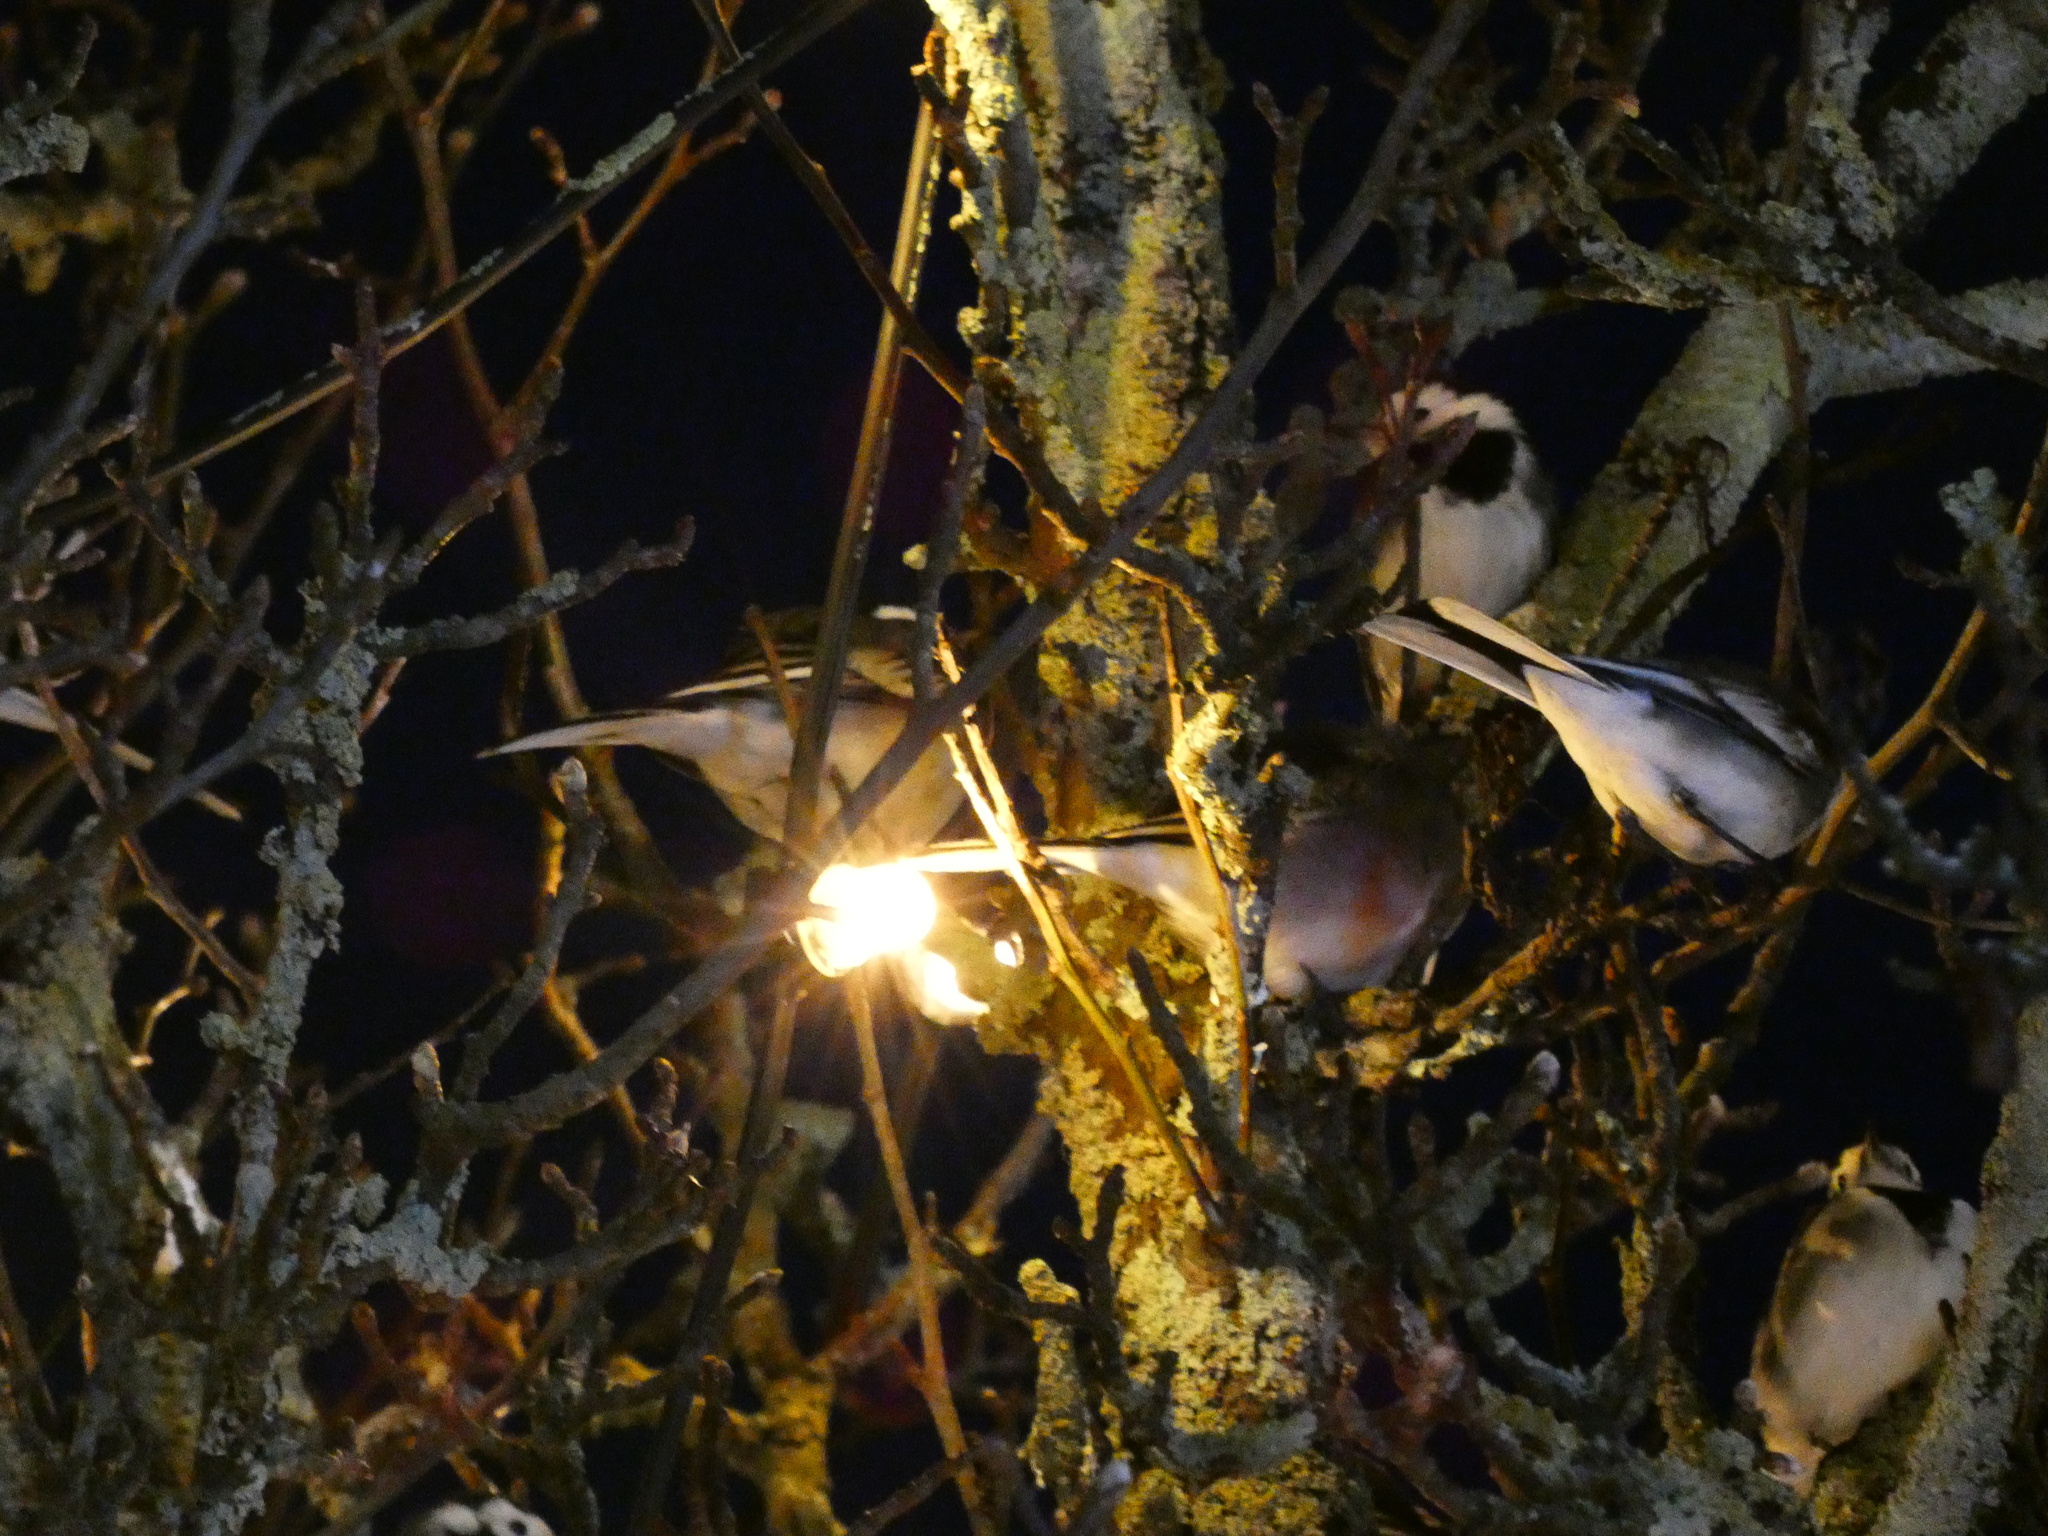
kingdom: Animalia
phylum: Chordata
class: Aves
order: Passeriformes
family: Motacillidae
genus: Motacilla
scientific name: Motacilla alba
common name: White wagtail
